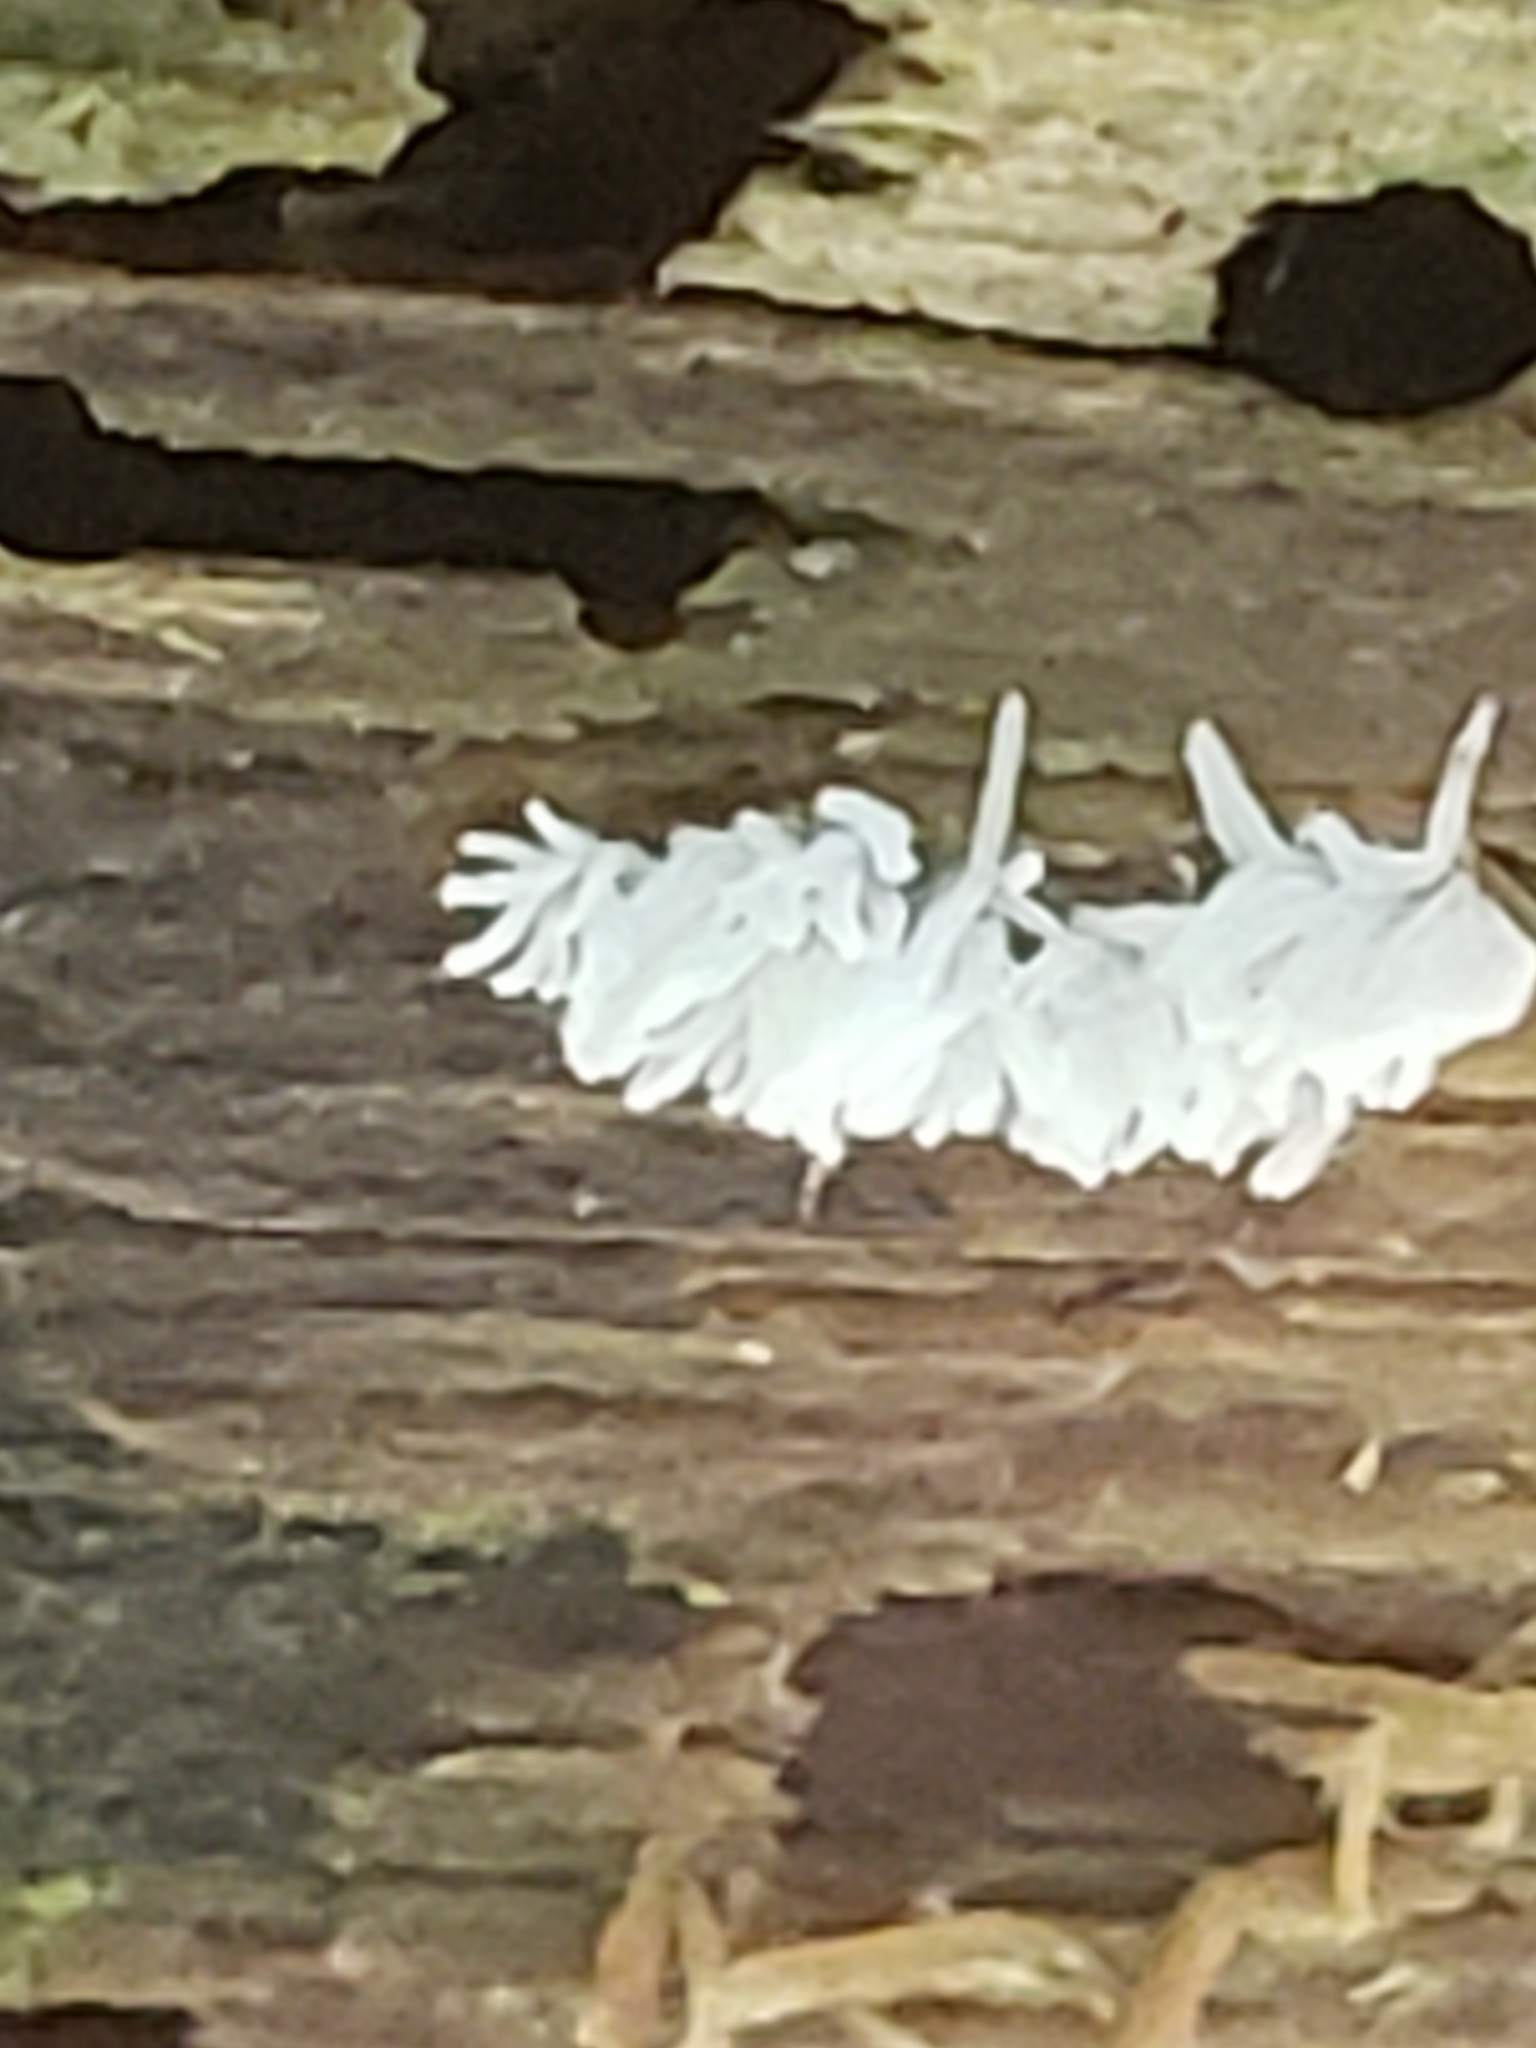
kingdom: Protozoa
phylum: Mycetozoa
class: Protosteliomycetes
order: Ceratiomyxales
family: Ceratiomyxaceae
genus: Ceratiomyxa
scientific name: Ceratiomyxa fruticulosa
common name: Honeycomb coral slime mold
